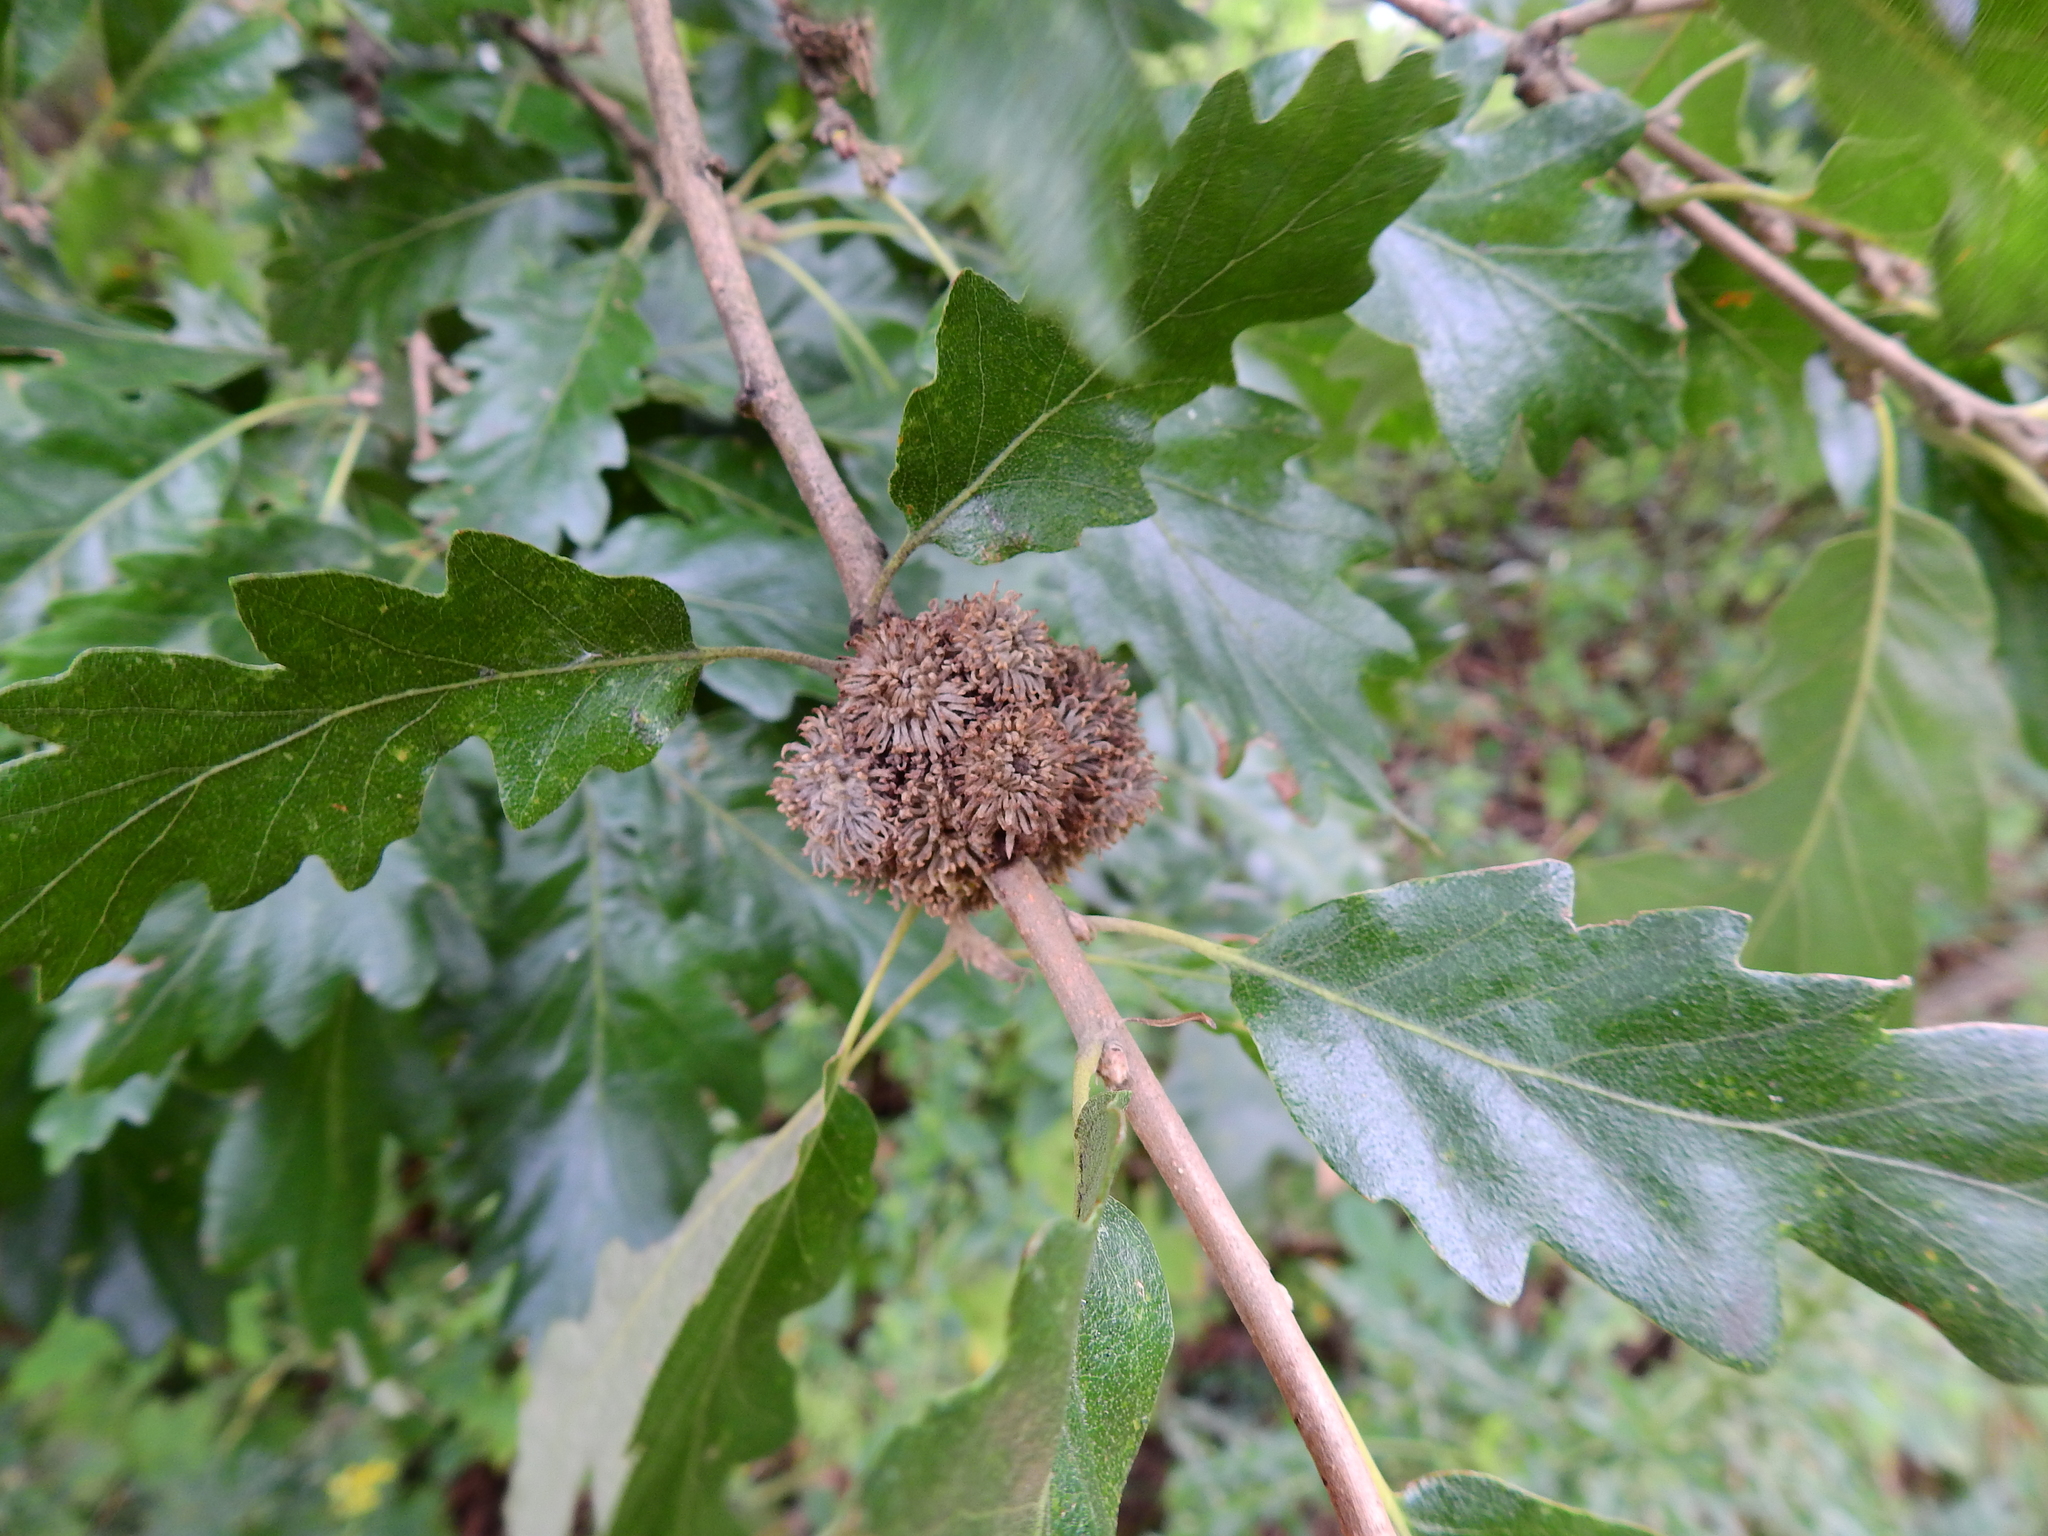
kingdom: Plantae
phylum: Tracheophyta
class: Magnoliopsida
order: Fagales
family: Fagaceae
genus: Quercus
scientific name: Quercus cerris
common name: Turkey oak
